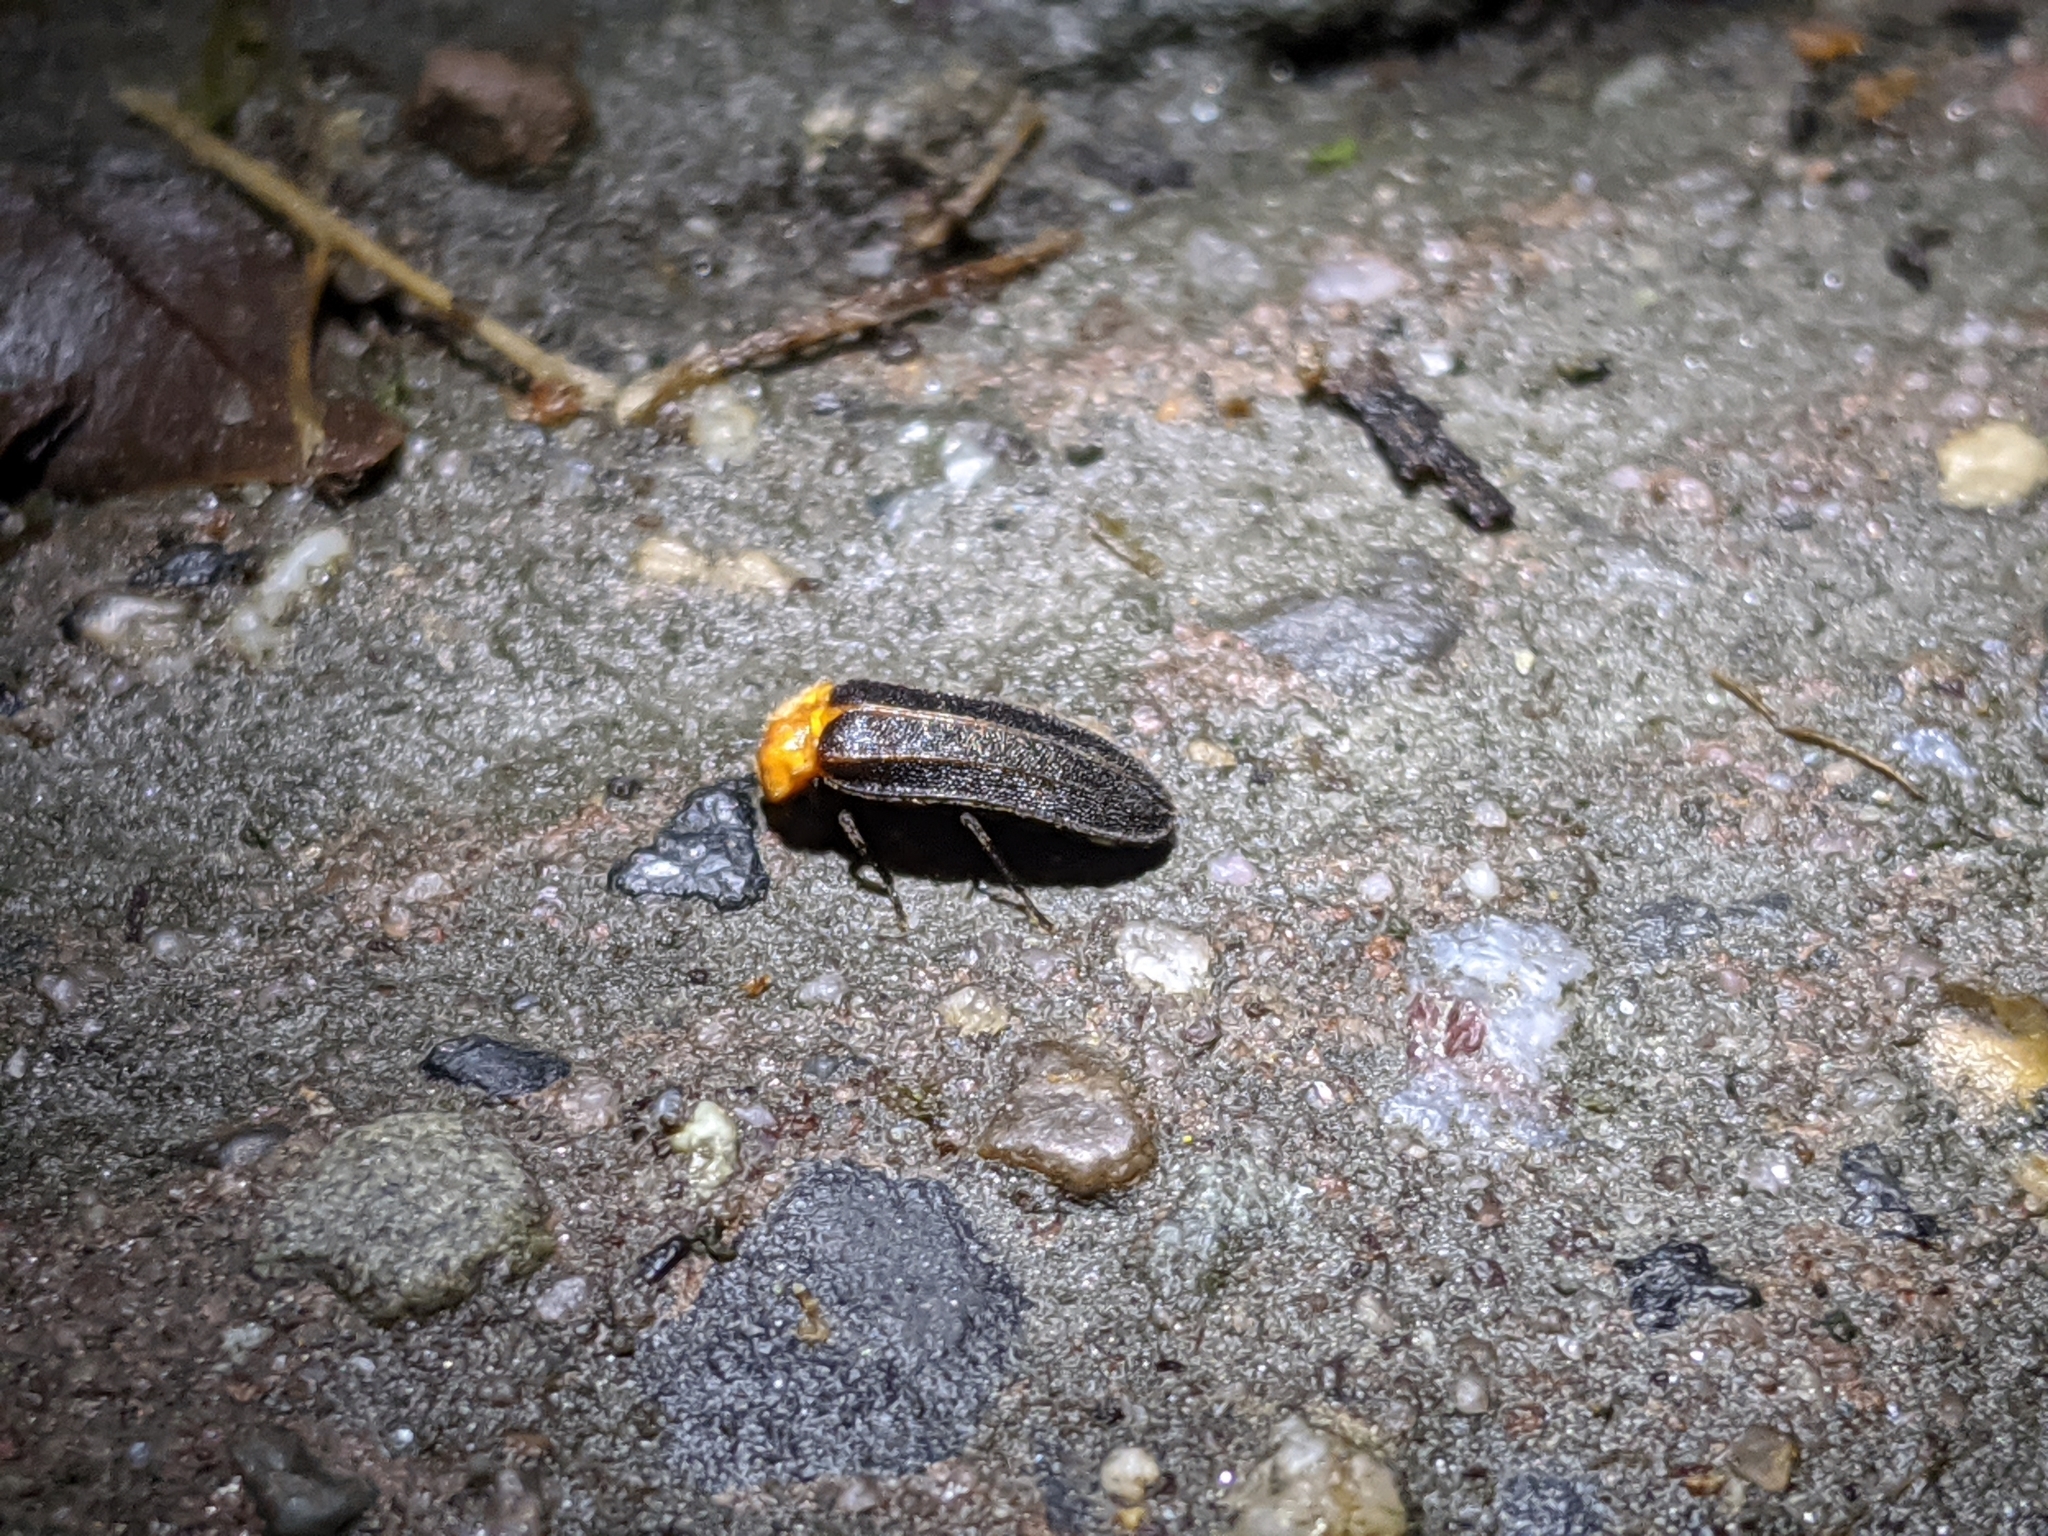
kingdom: Animalia
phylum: Arthropoda
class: Insecta
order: Coleoptera
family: Lampyridae
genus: Curtos
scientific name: Curtos mundulus
